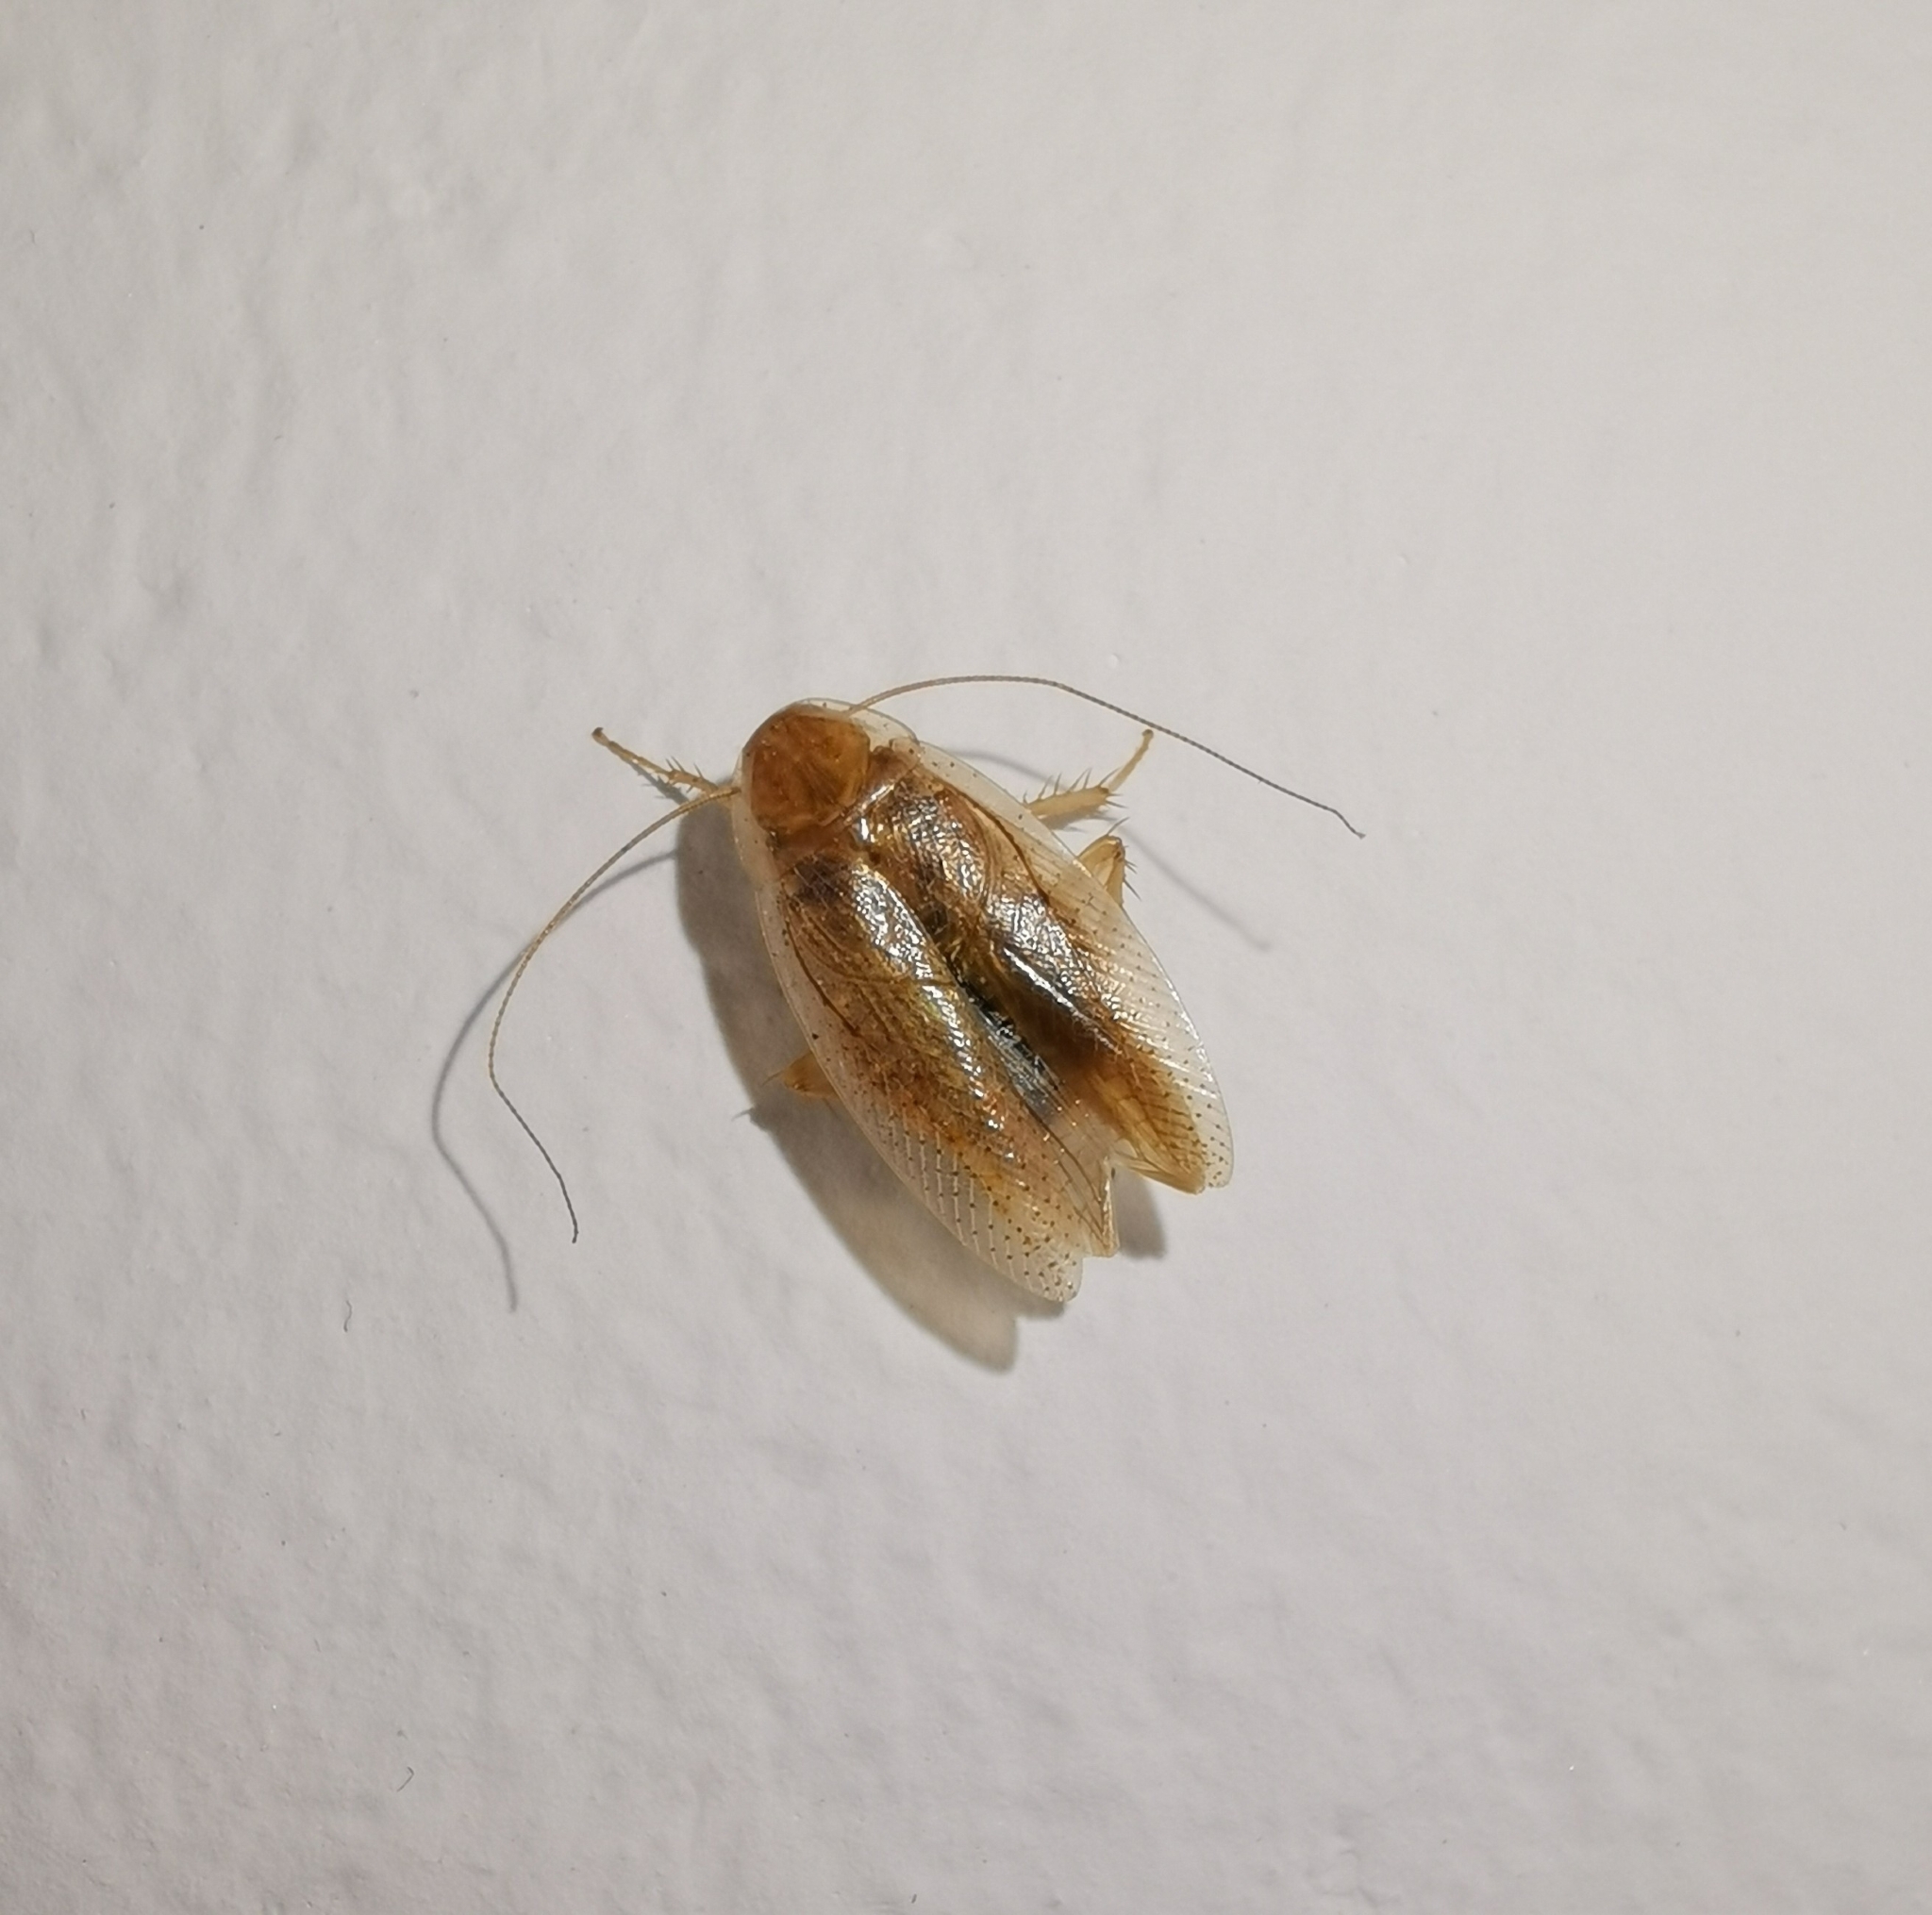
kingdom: Animalia
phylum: Arthropoda
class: Insecta
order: Blattodea
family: Ectobiidae
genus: Ectobius
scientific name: Ectobius vittiventris
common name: Garden cockroach
